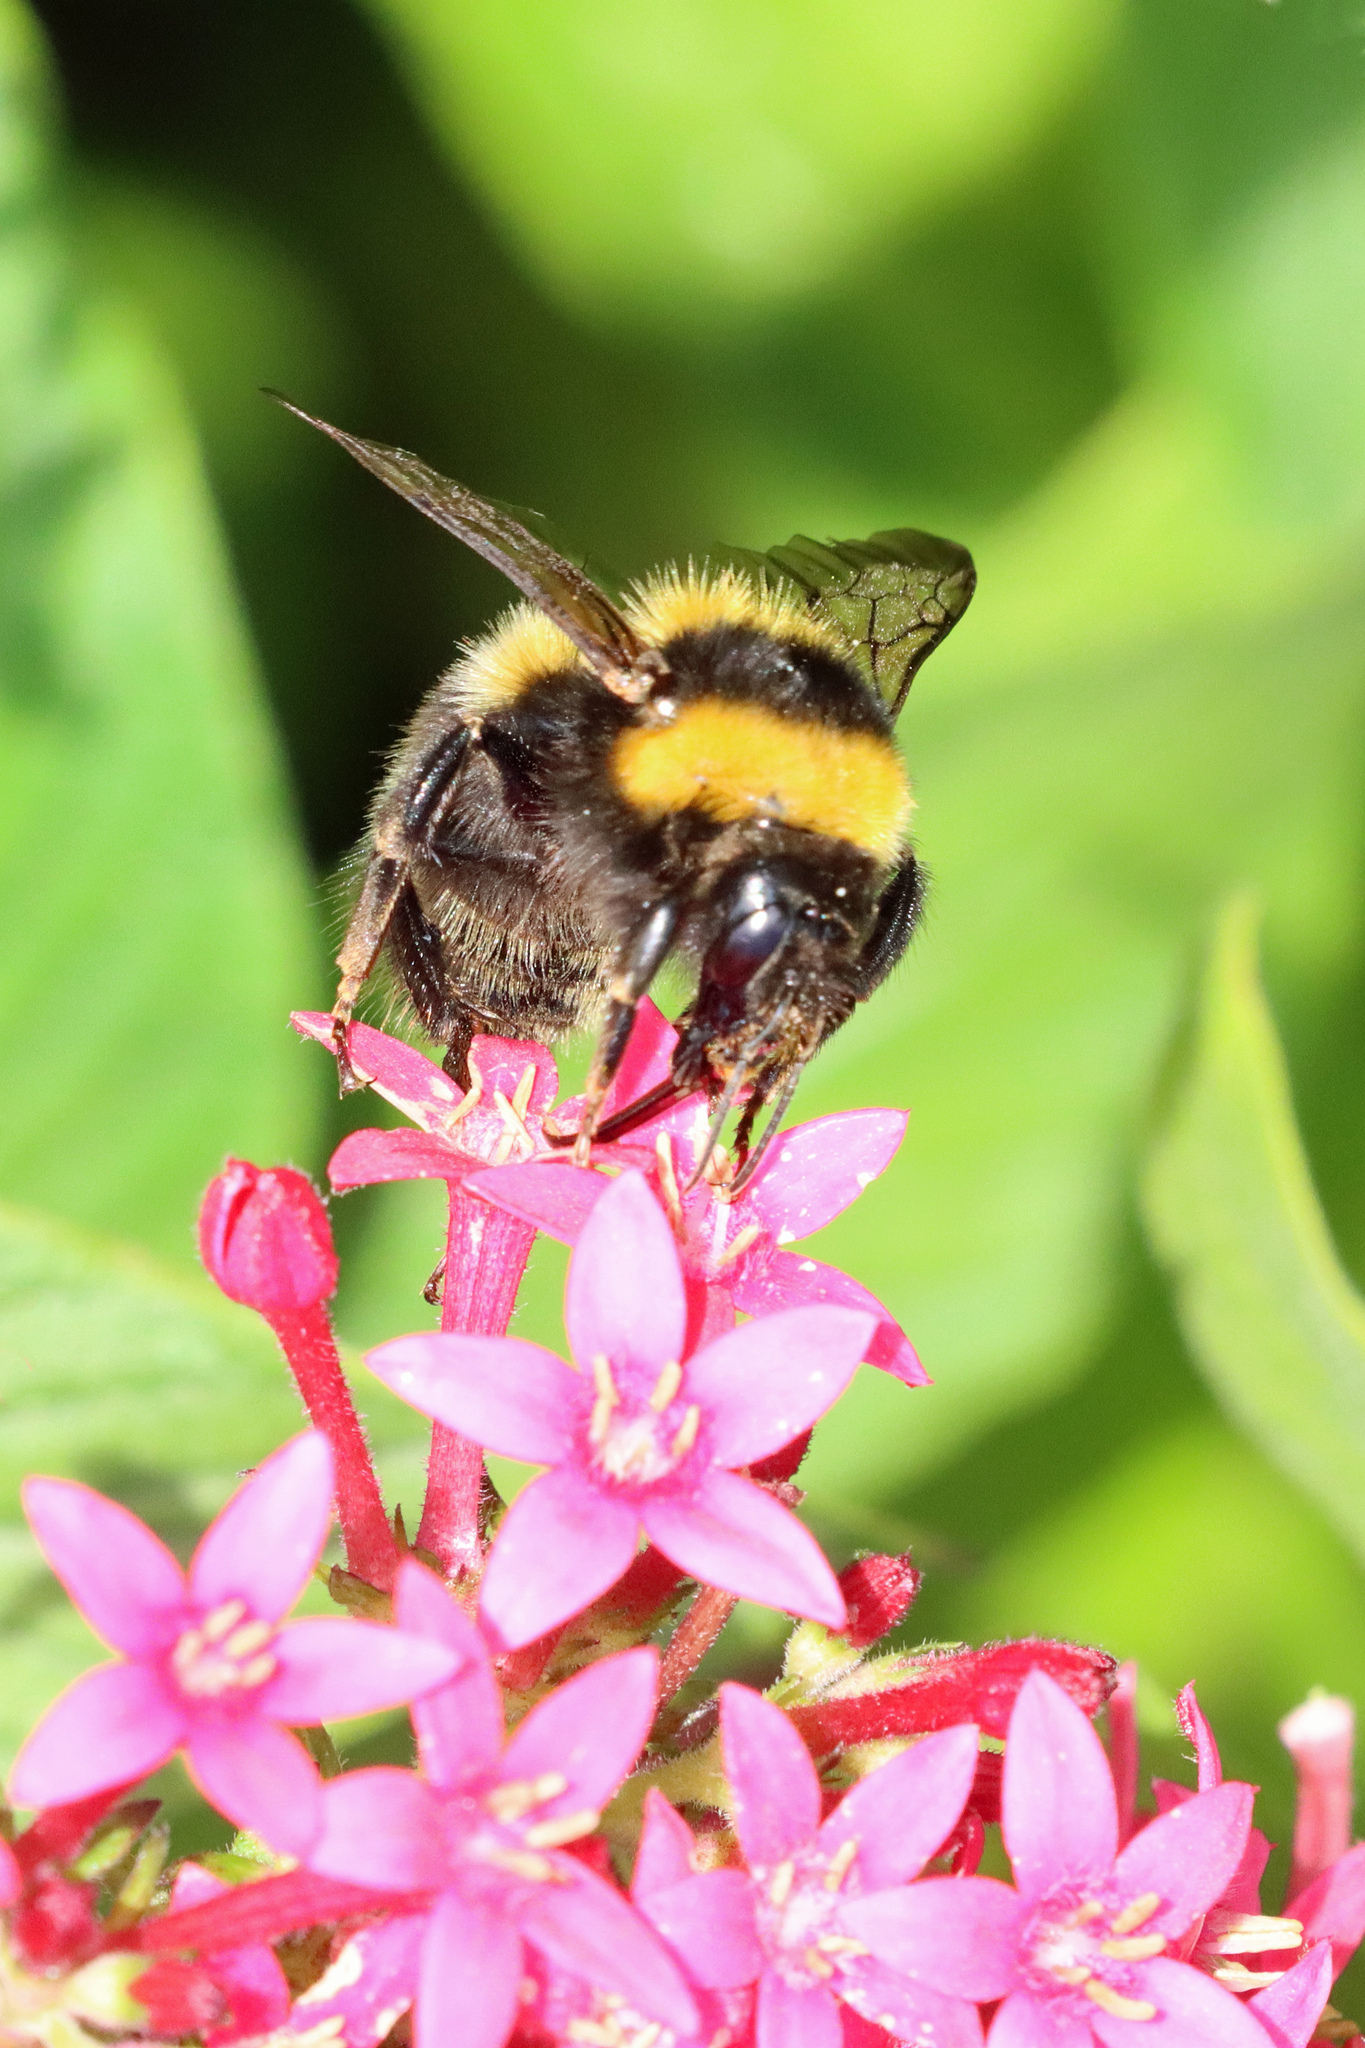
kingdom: Animalia
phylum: Arthropoda
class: Insecta
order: Hymenoptera
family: Apidae
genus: Bombus
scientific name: Bombus ruderatus
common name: Large garden bumblebee
